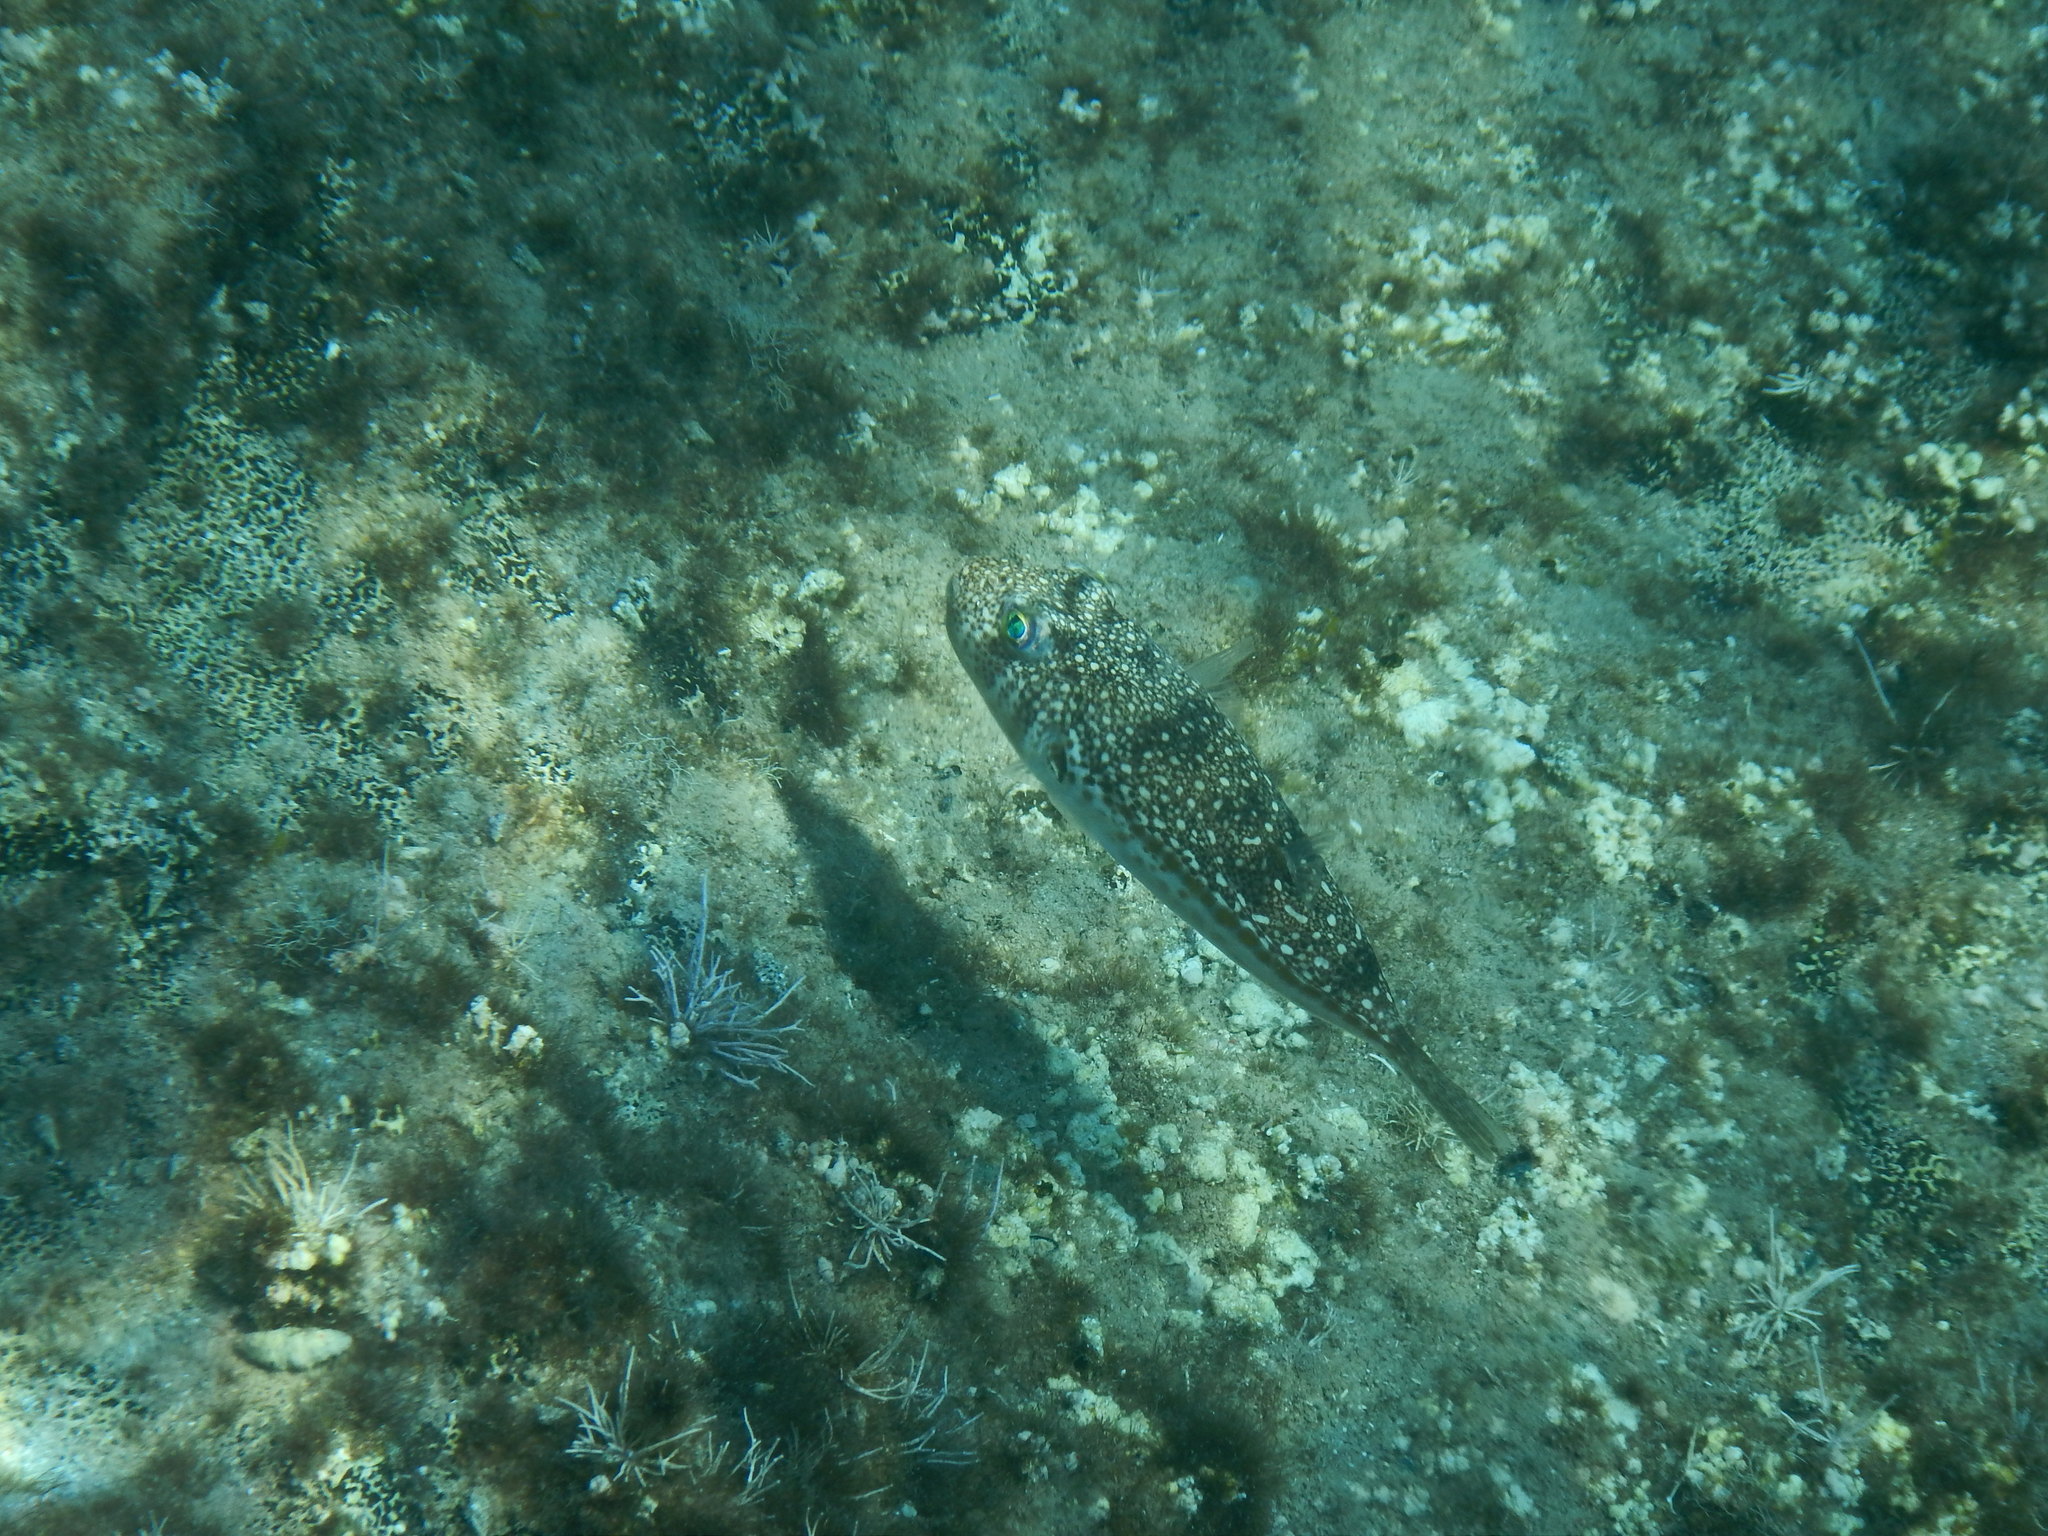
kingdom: Animalia
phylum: Chordata
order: Tetraodontiformes
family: Tetraodontidae
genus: Torquigener
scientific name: Torquigener flavimaculosus
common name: Studded pufferfish
